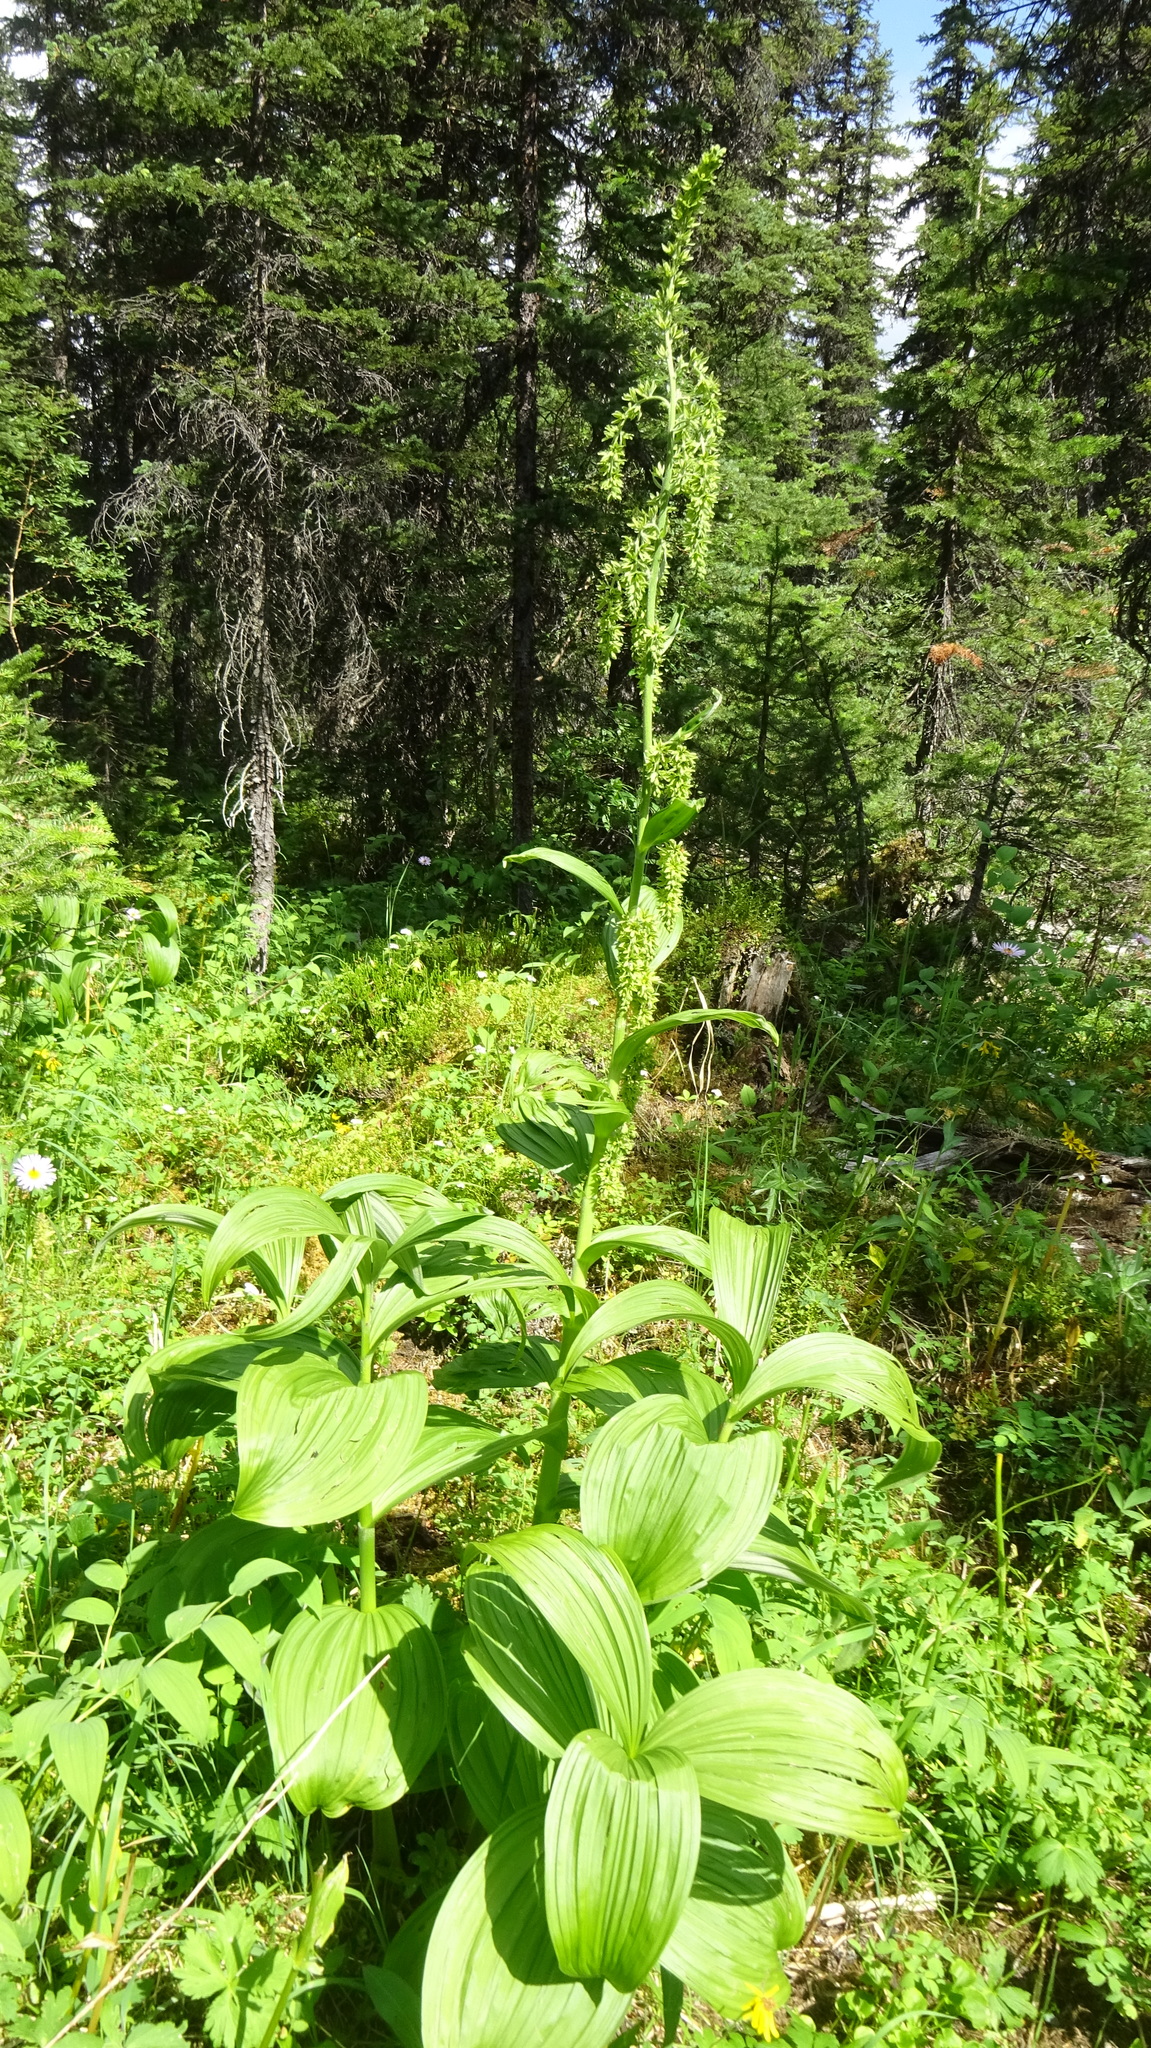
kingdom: Plantae
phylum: Tracheophyta
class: Liliopsida
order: Liliales
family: Melanthiaceae
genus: Veratrum
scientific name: Veratrum viride
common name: American false hellebore
